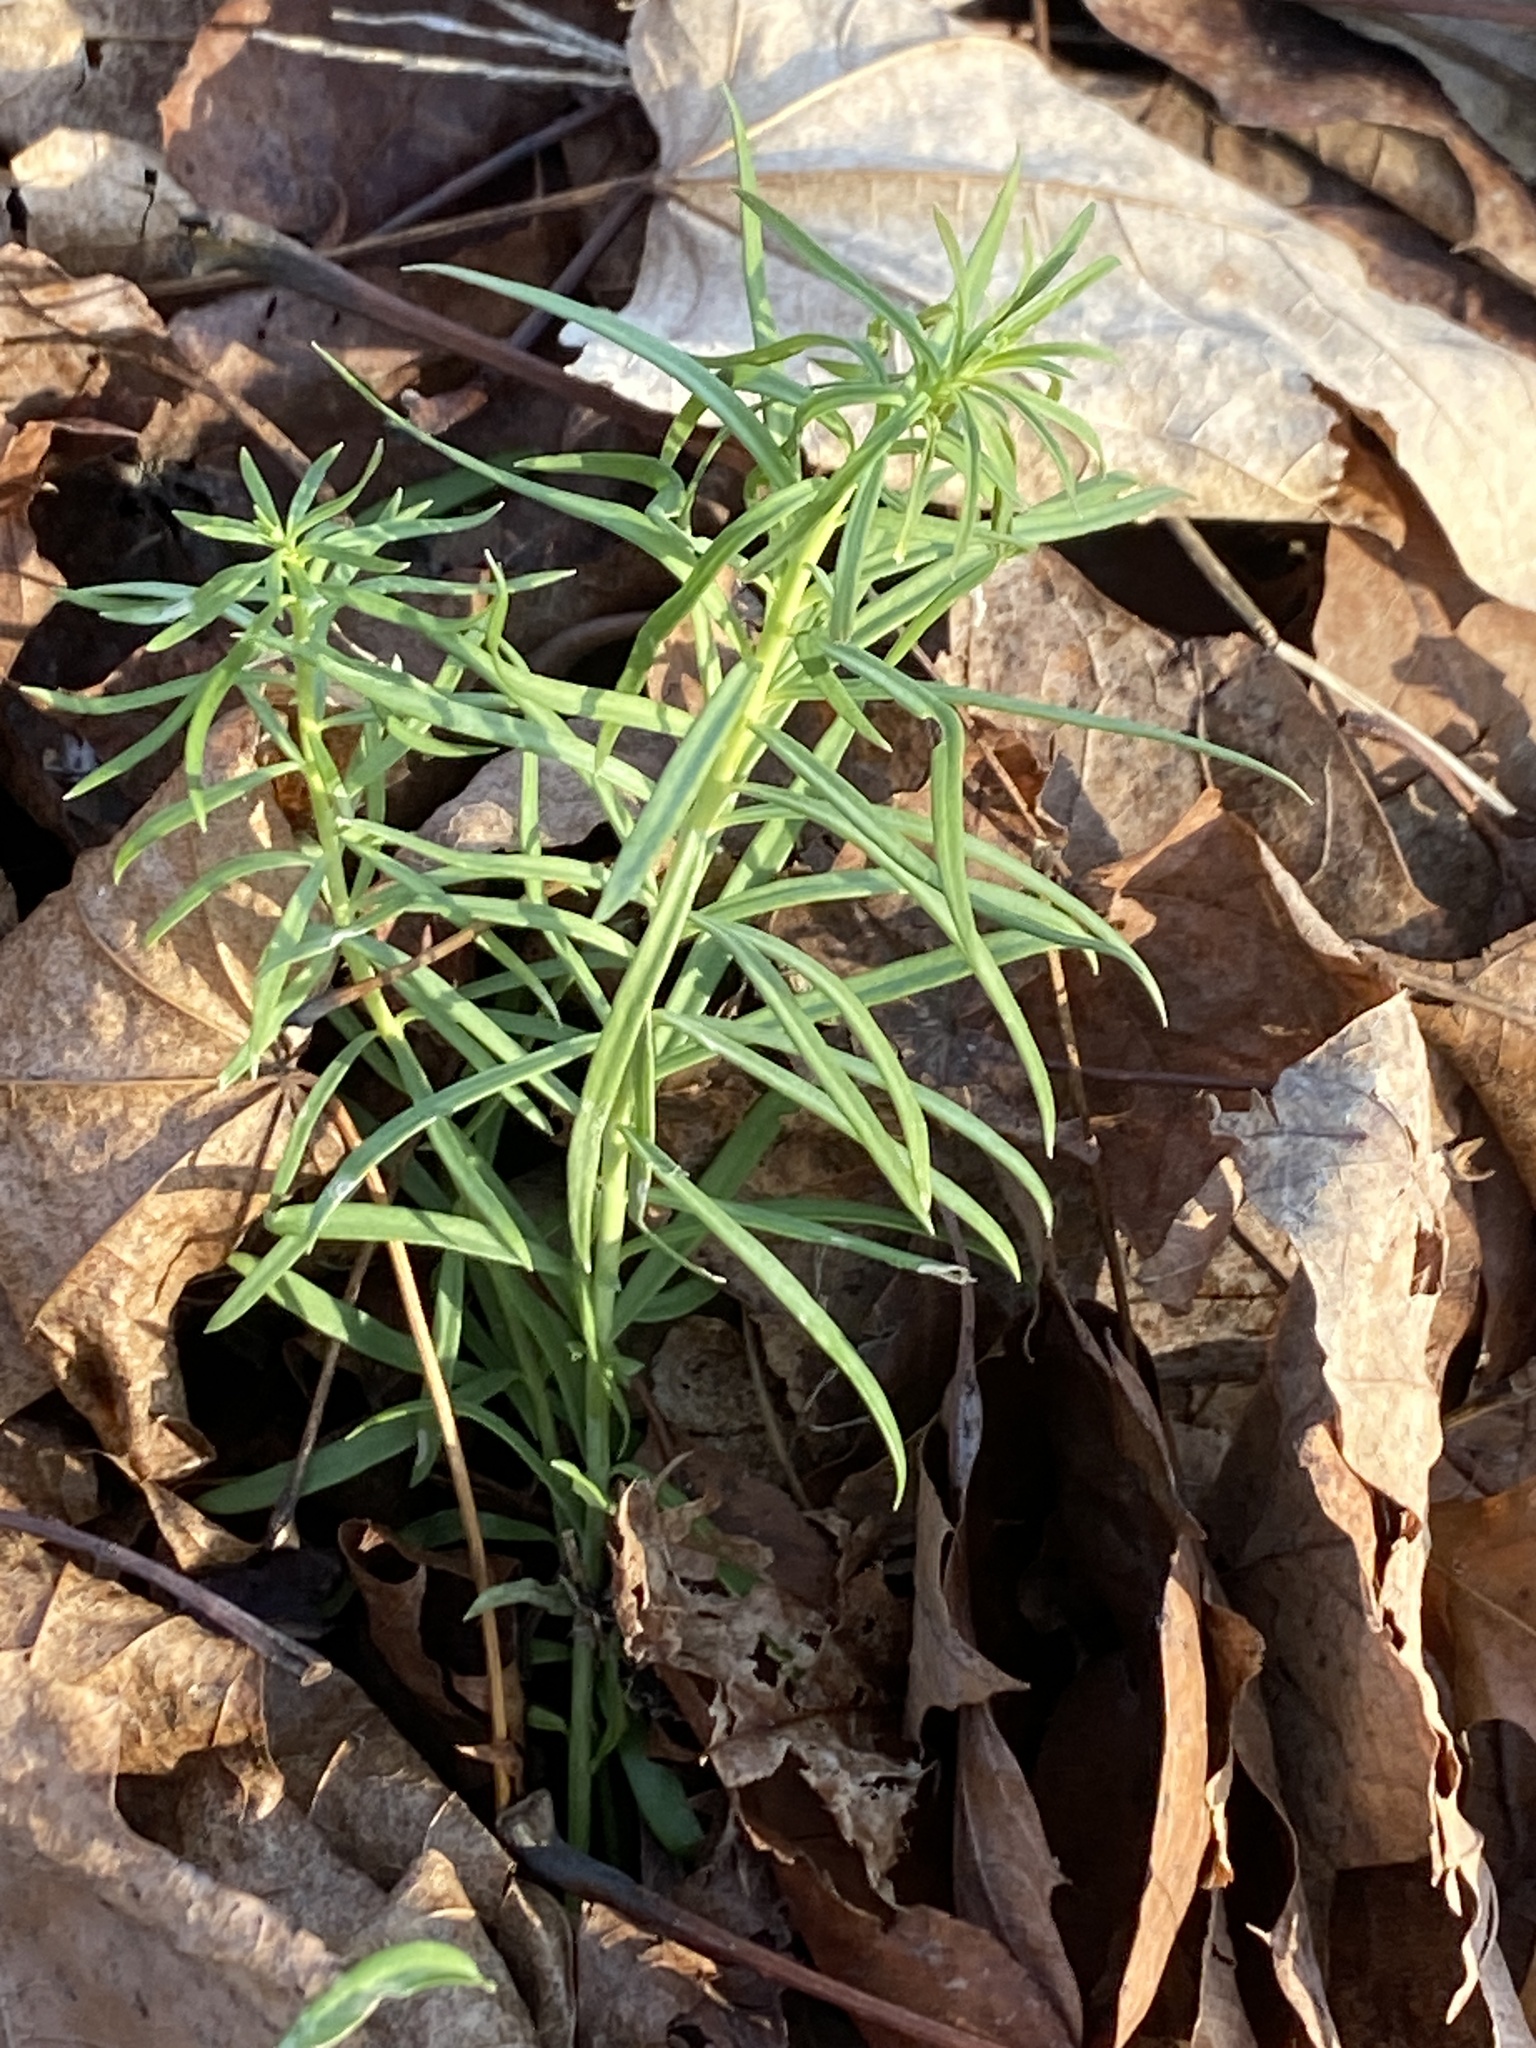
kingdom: Plantae
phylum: Tracheophyta
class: Magnoliopsida
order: Lamiales
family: Plantaginaceae
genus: Linaria
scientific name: Linaria vulgaris
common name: Butter and eggs
